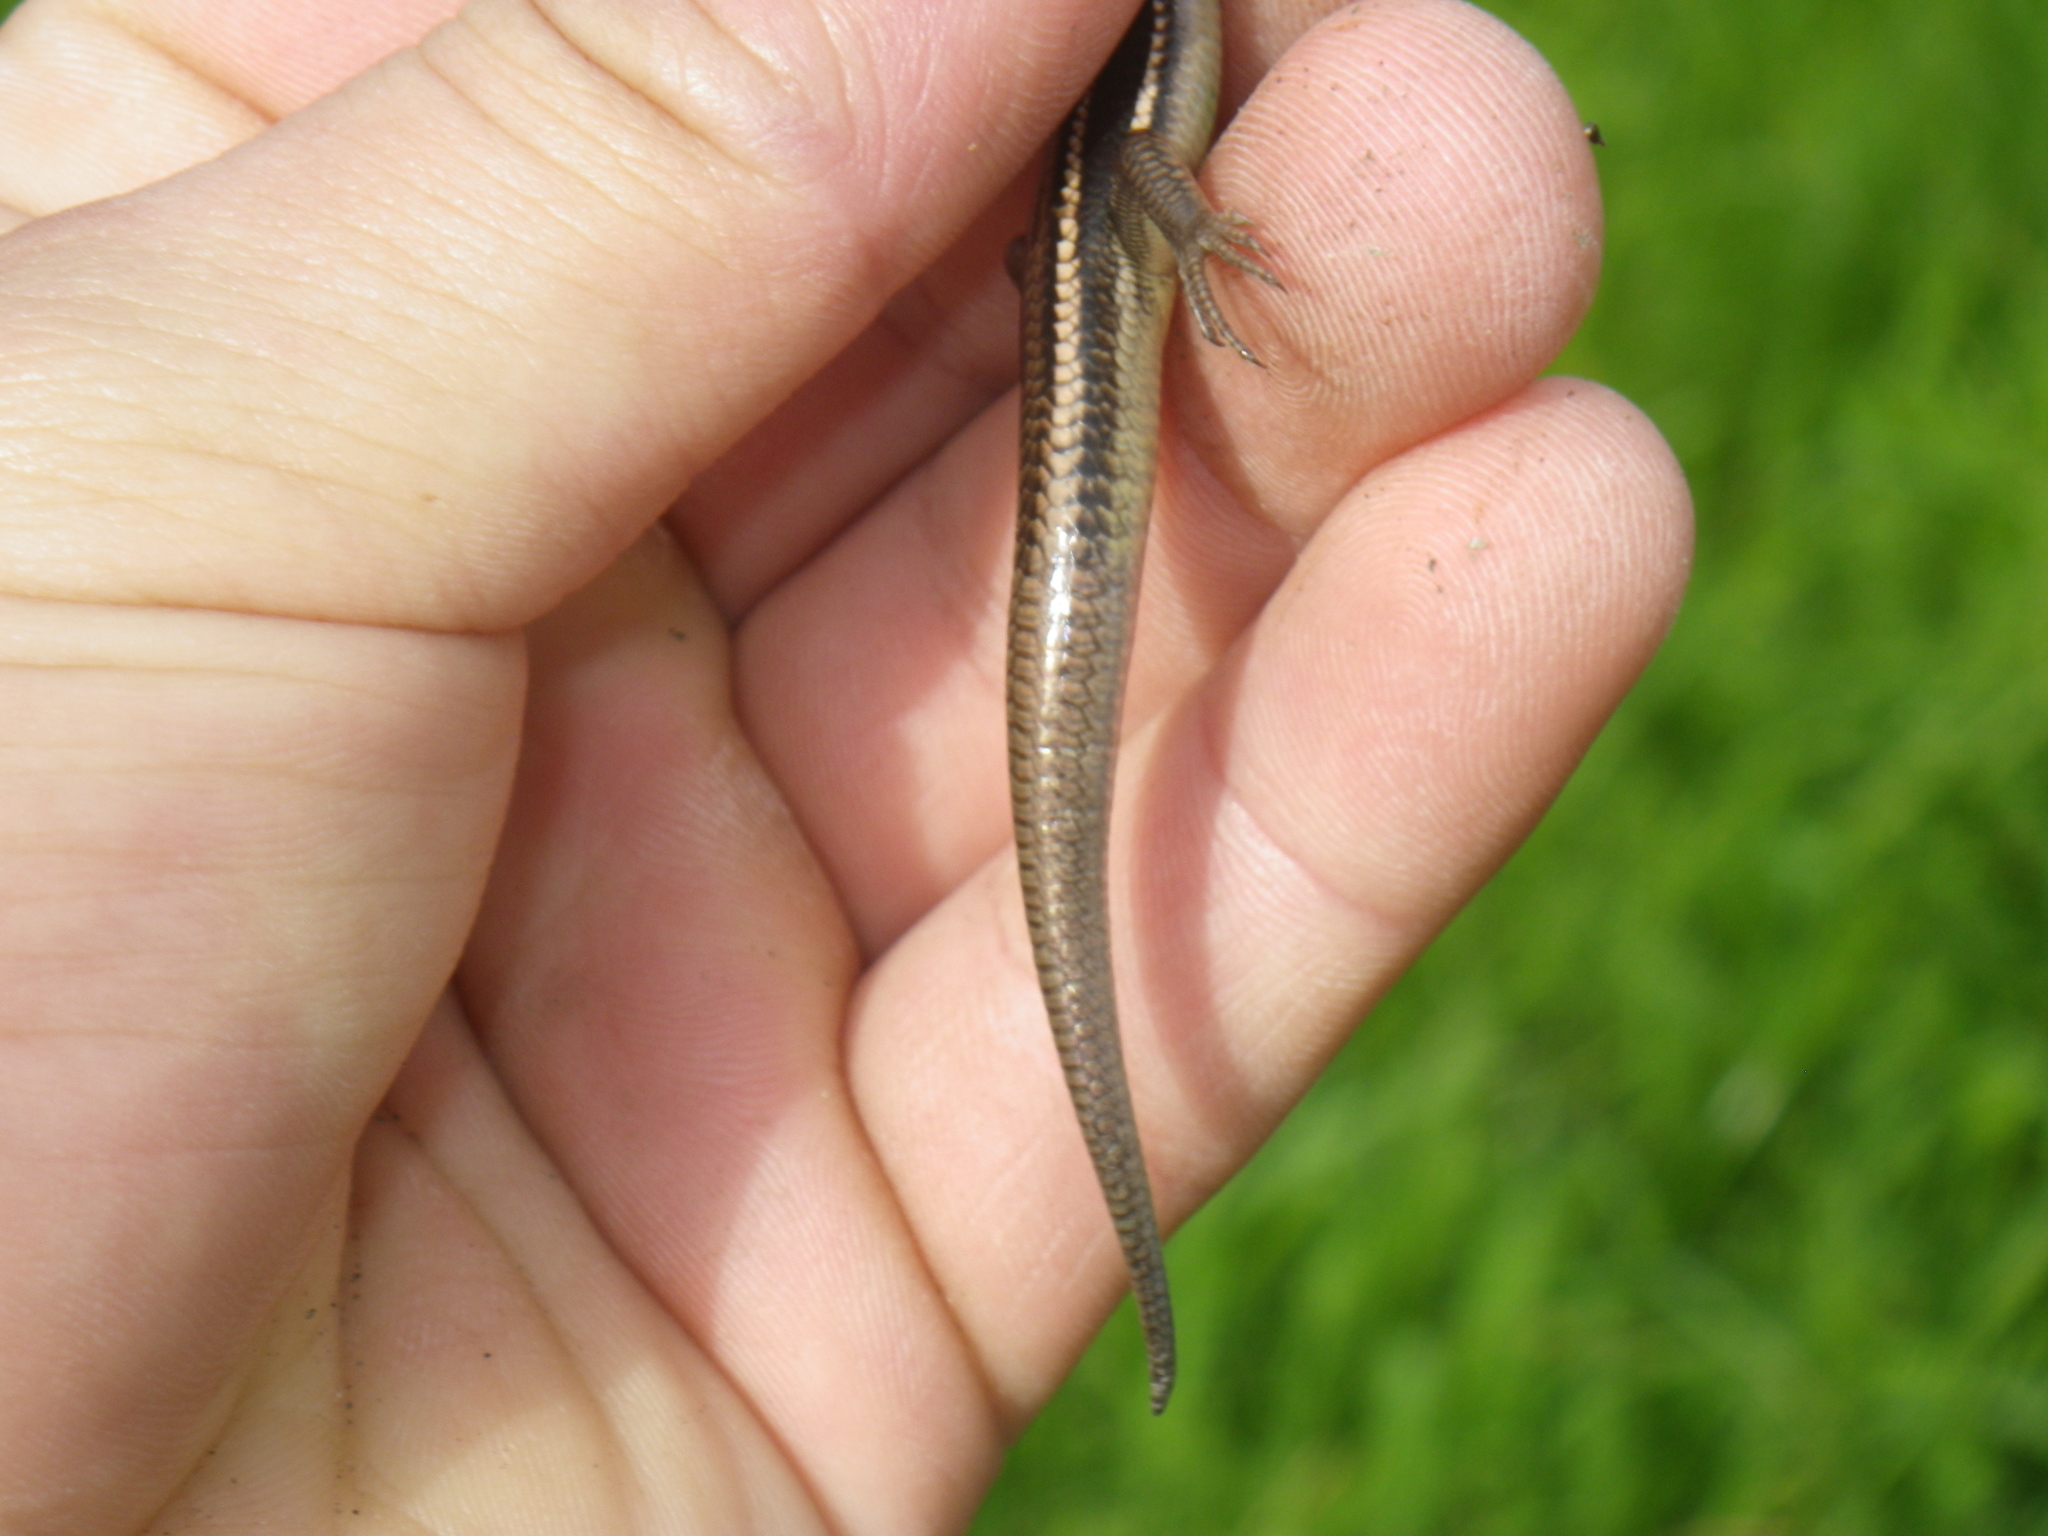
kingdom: Animalia
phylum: Chordata
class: Squamata
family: Scincidae
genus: Plestiodon
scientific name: Plestiodon gilberti
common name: Gilbert's skink
